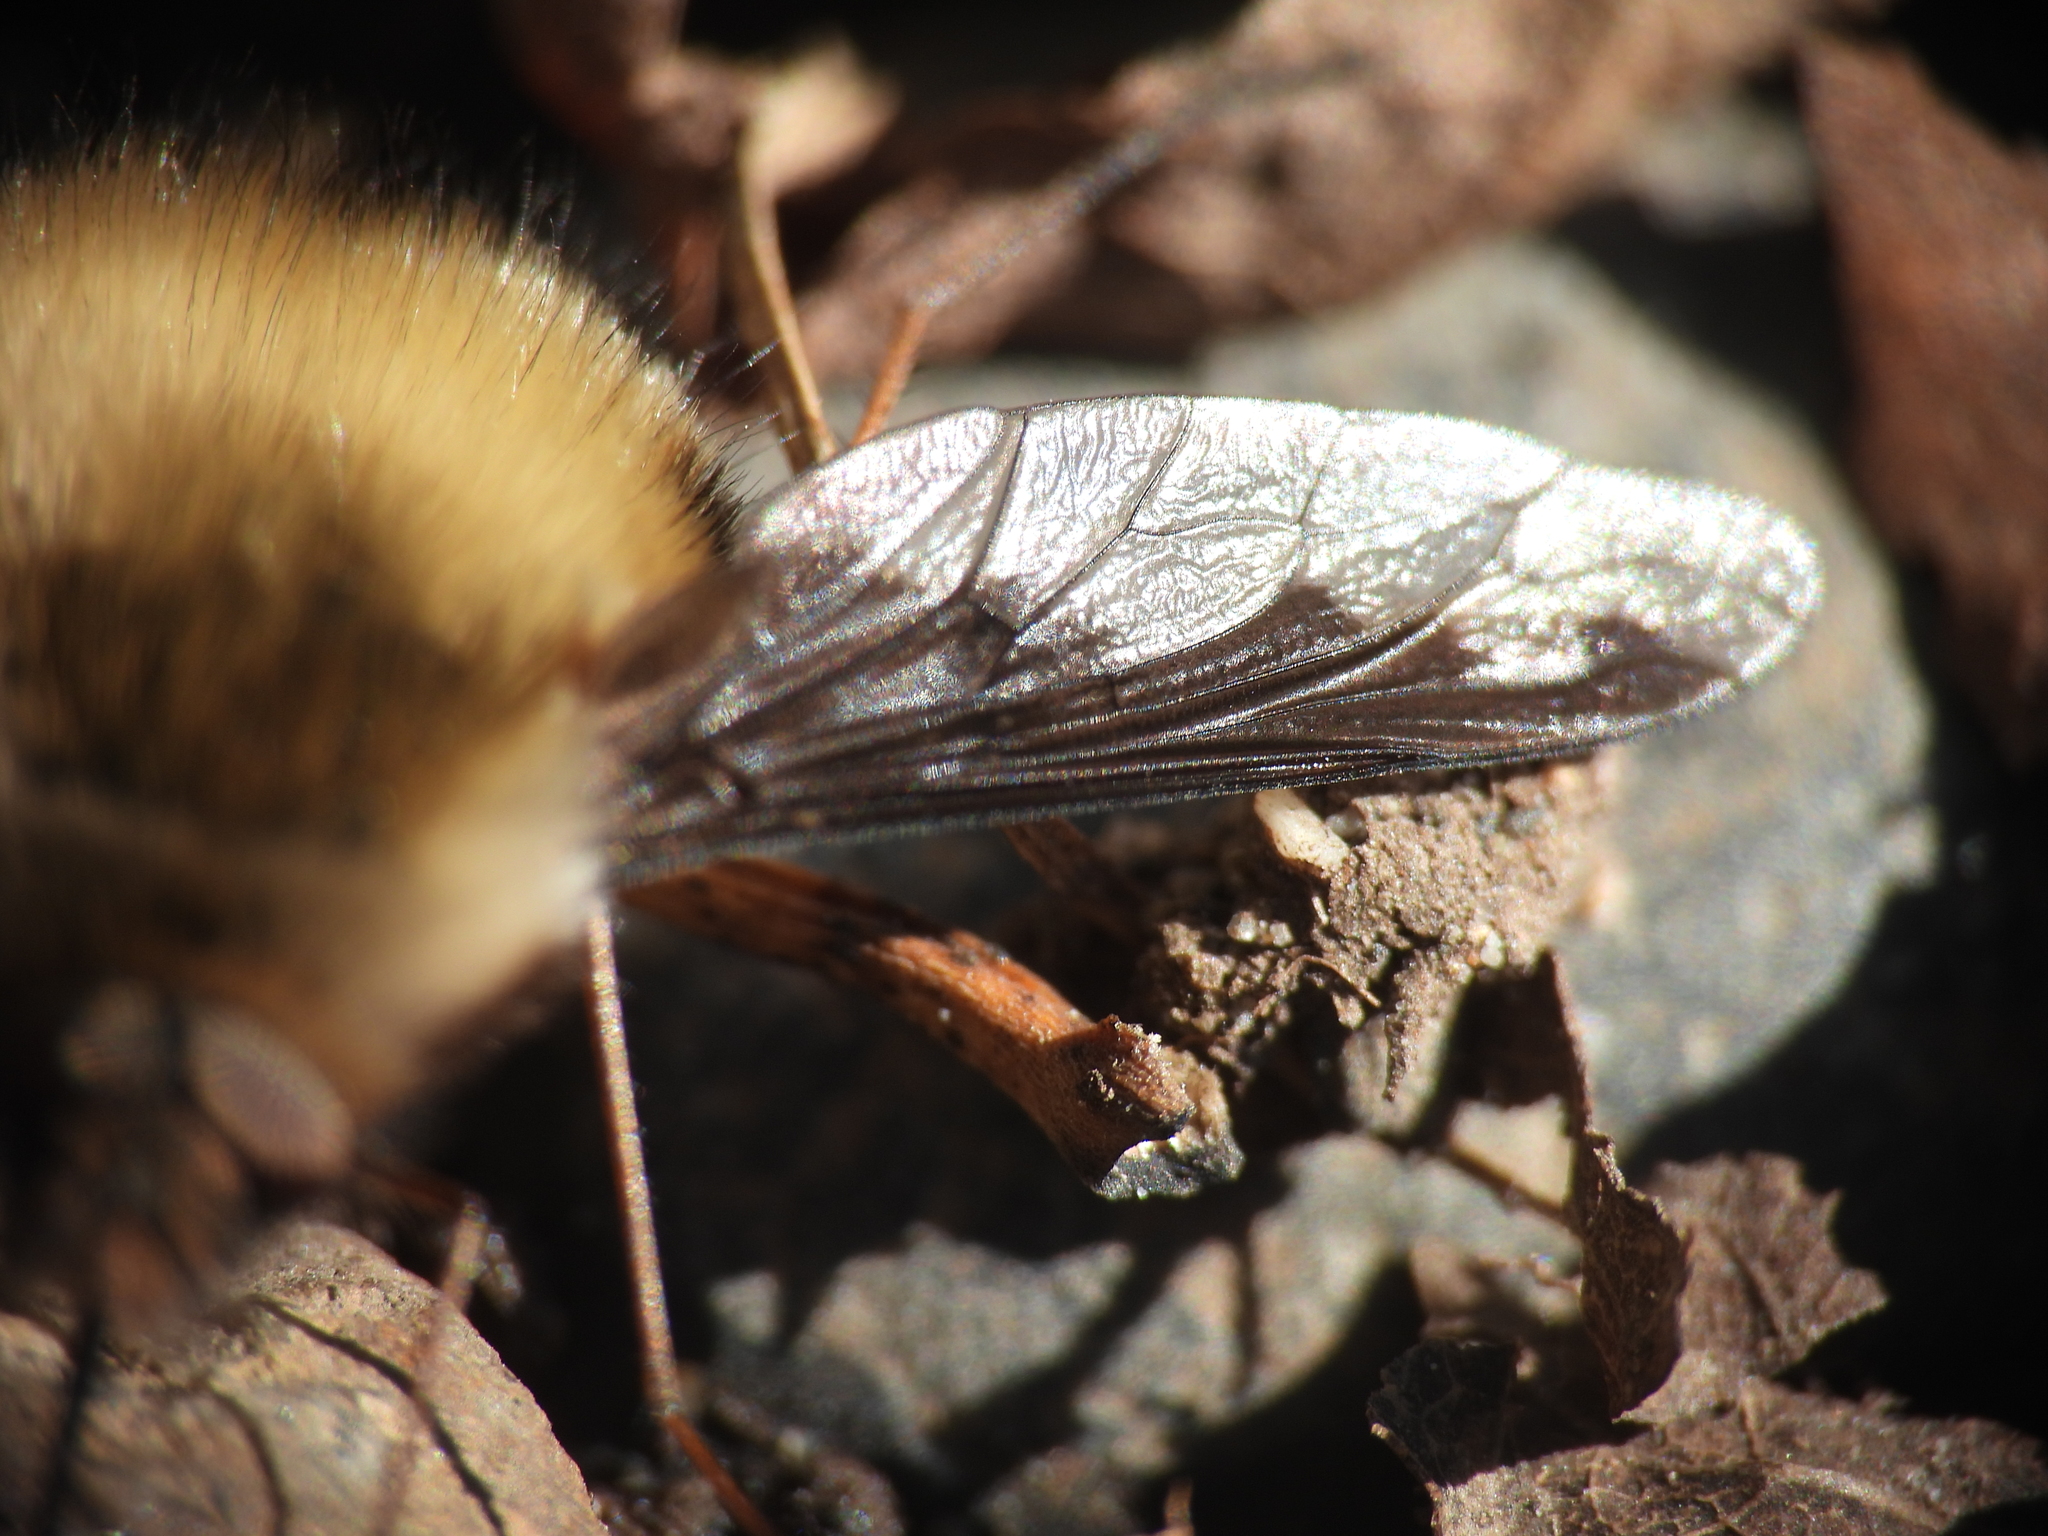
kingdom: Animalia
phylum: Arthropoda
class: Insecta
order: Diptera
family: Bombyliidae
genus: Bombylius
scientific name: Bombylius major
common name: Bee fly
